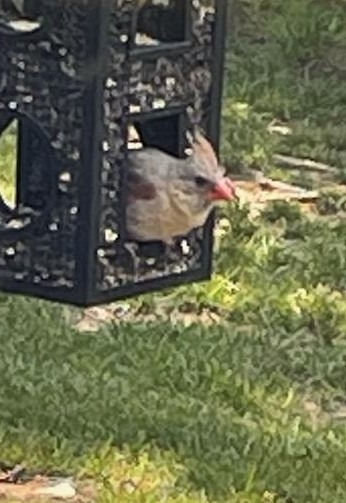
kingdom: Animalia
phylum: Chordata
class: Aves
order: Passeriformes
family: Cardinalidae
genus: Cardinalis
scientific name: Cardinalis cardinalis
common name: Northern cardinal
